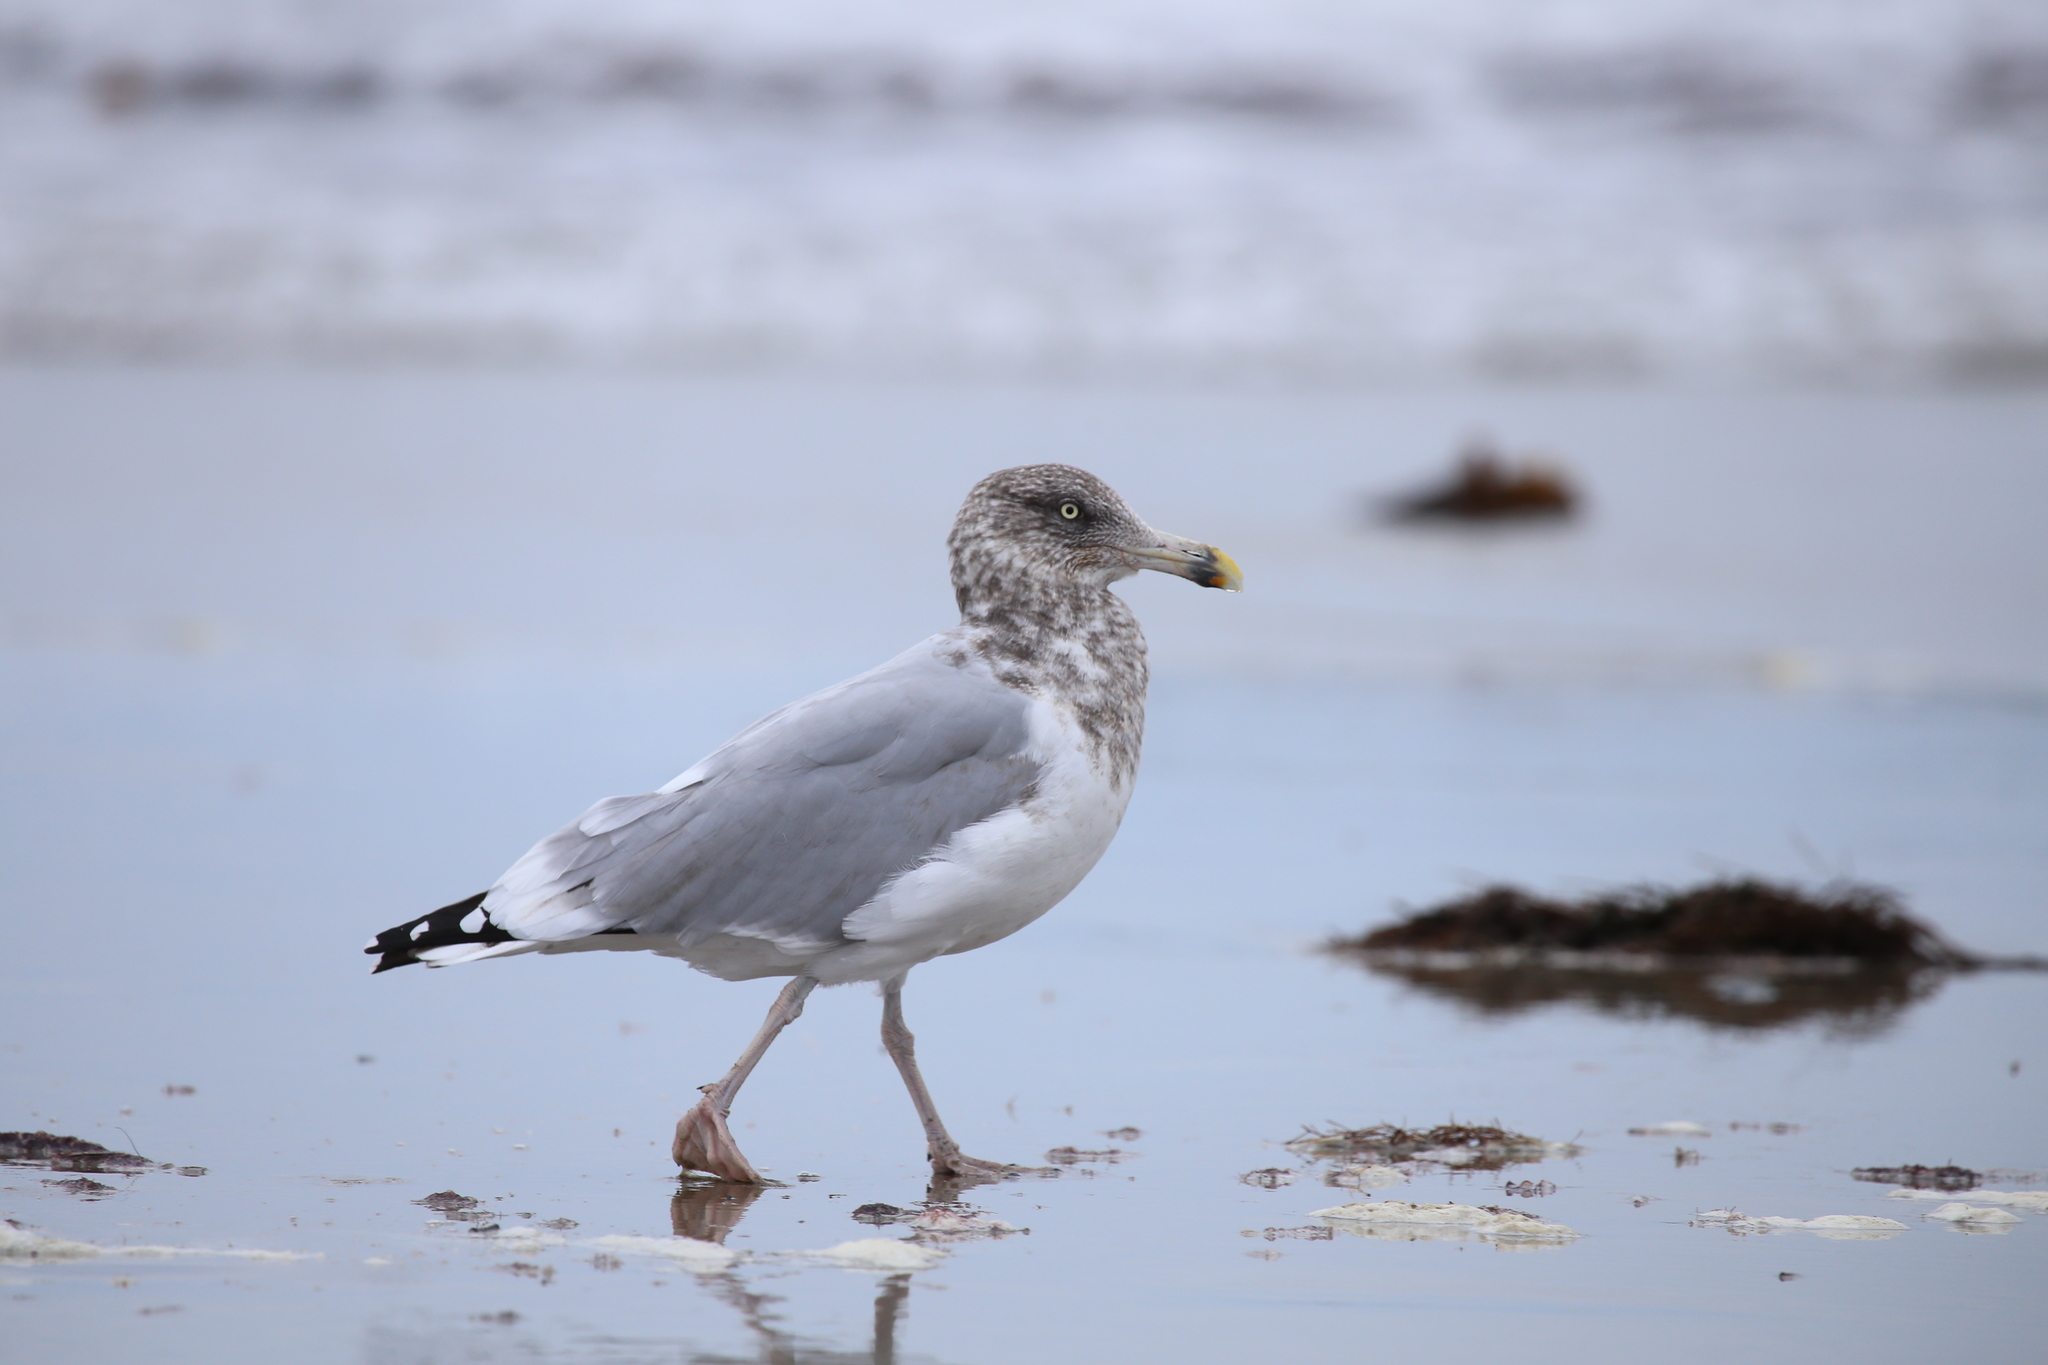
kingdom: Animalia
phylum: Chordata
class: Aves
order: Charadriiformes
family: Laridae
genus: Larus
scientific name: Larus argentatus
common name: Herring gull
